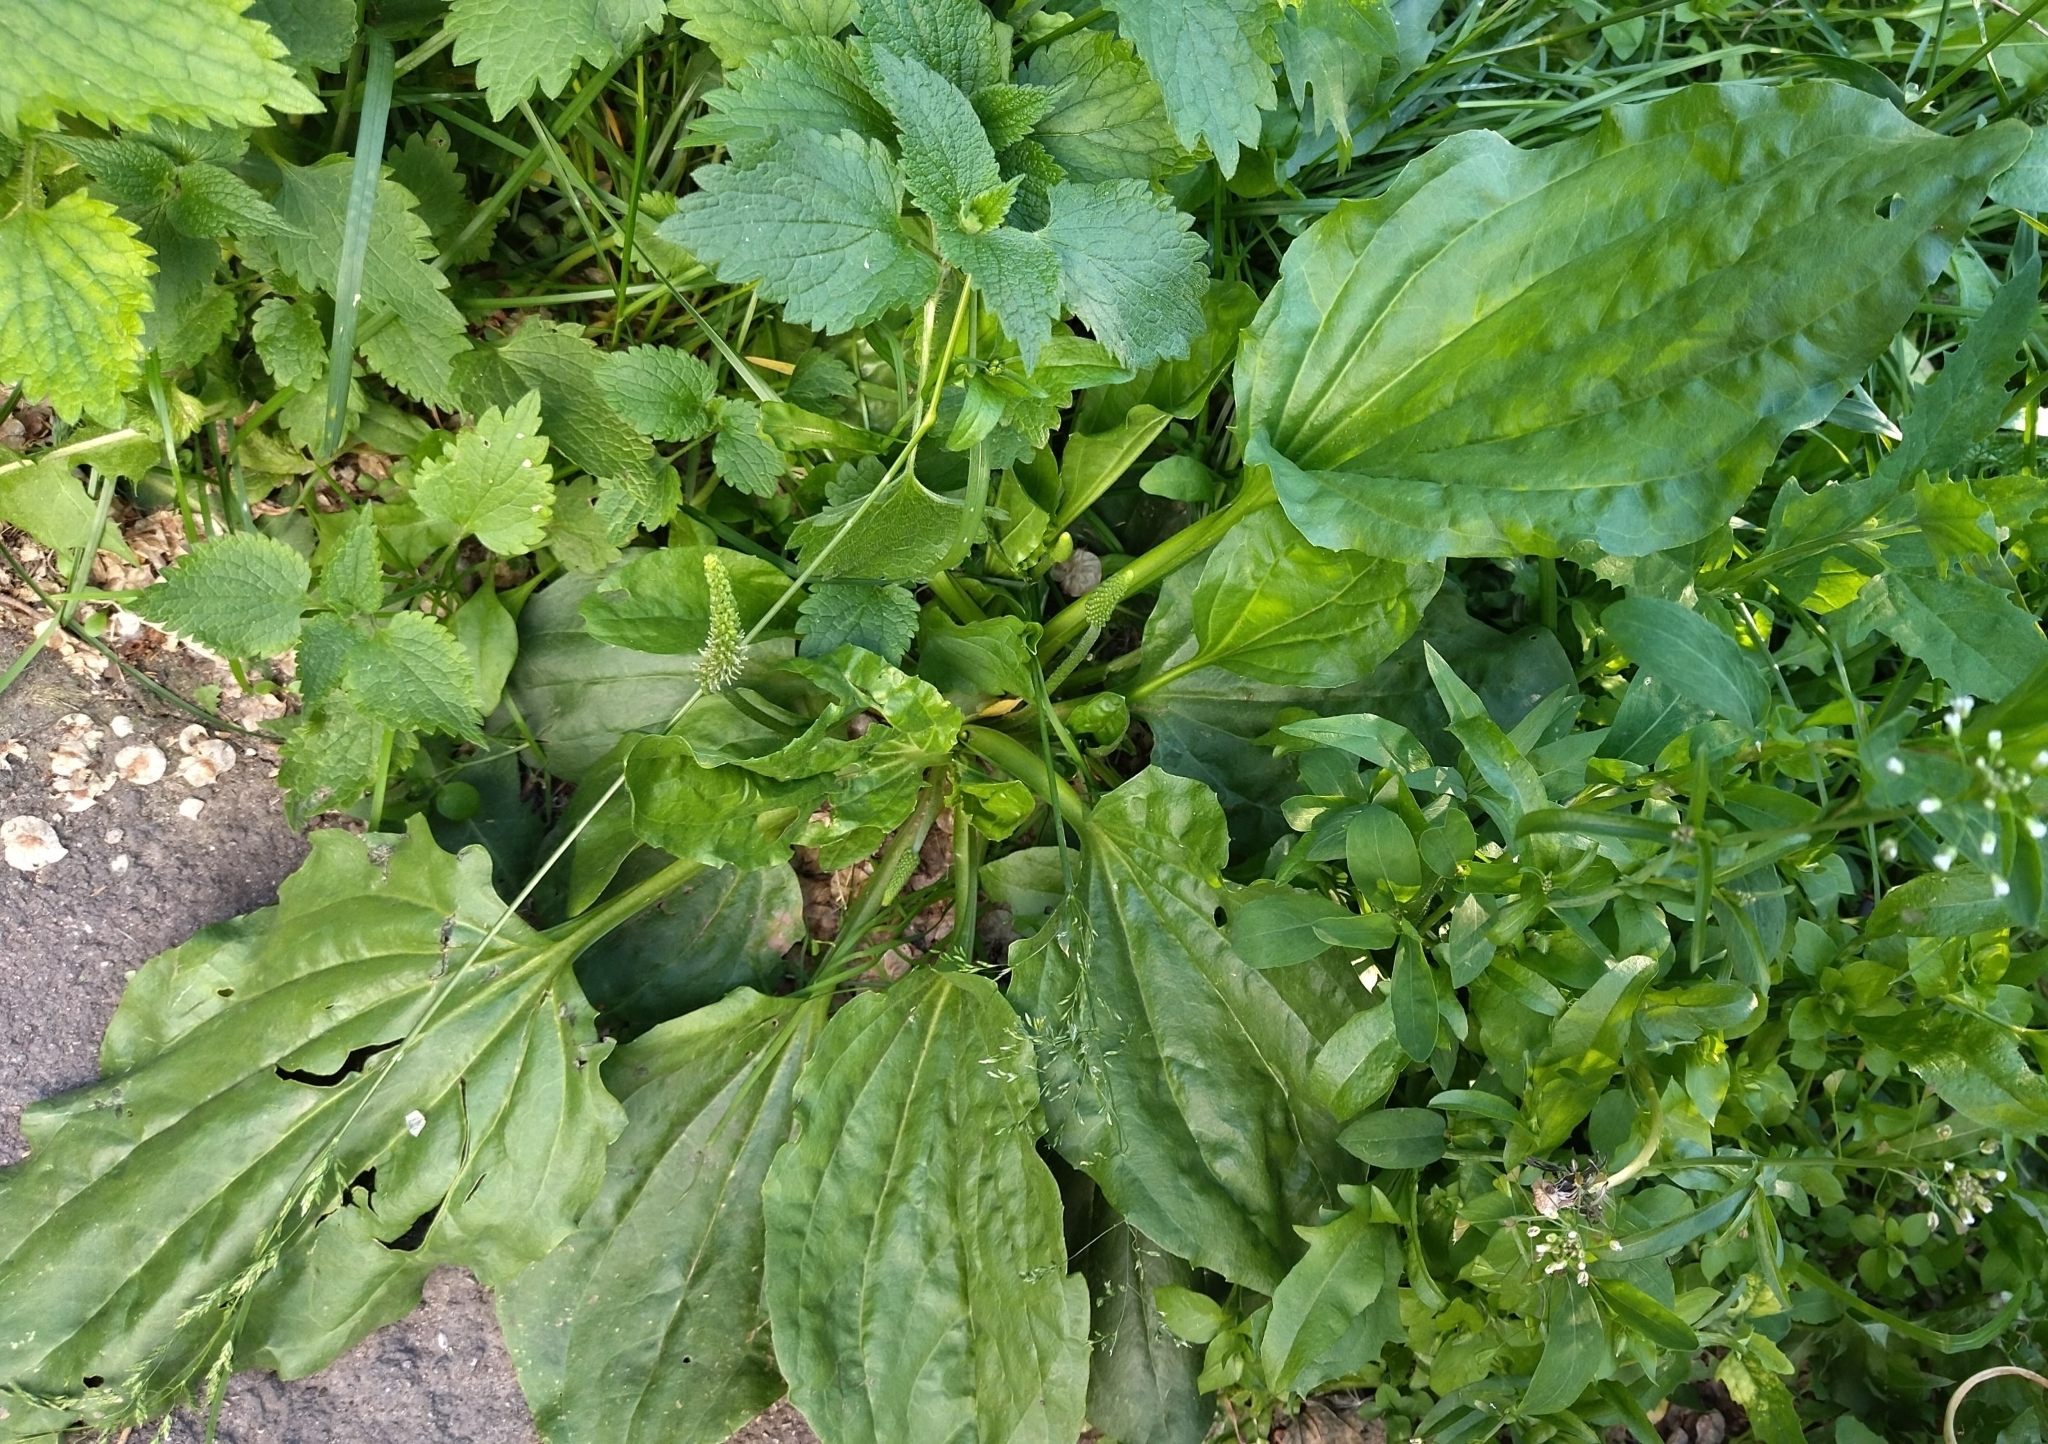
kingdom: Plantae
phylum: Tracheophyta
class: Magnoliopsida
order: Lamiales
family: Plantaginaceae
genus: Plantago
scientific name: Plantago major
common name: Common plantain
